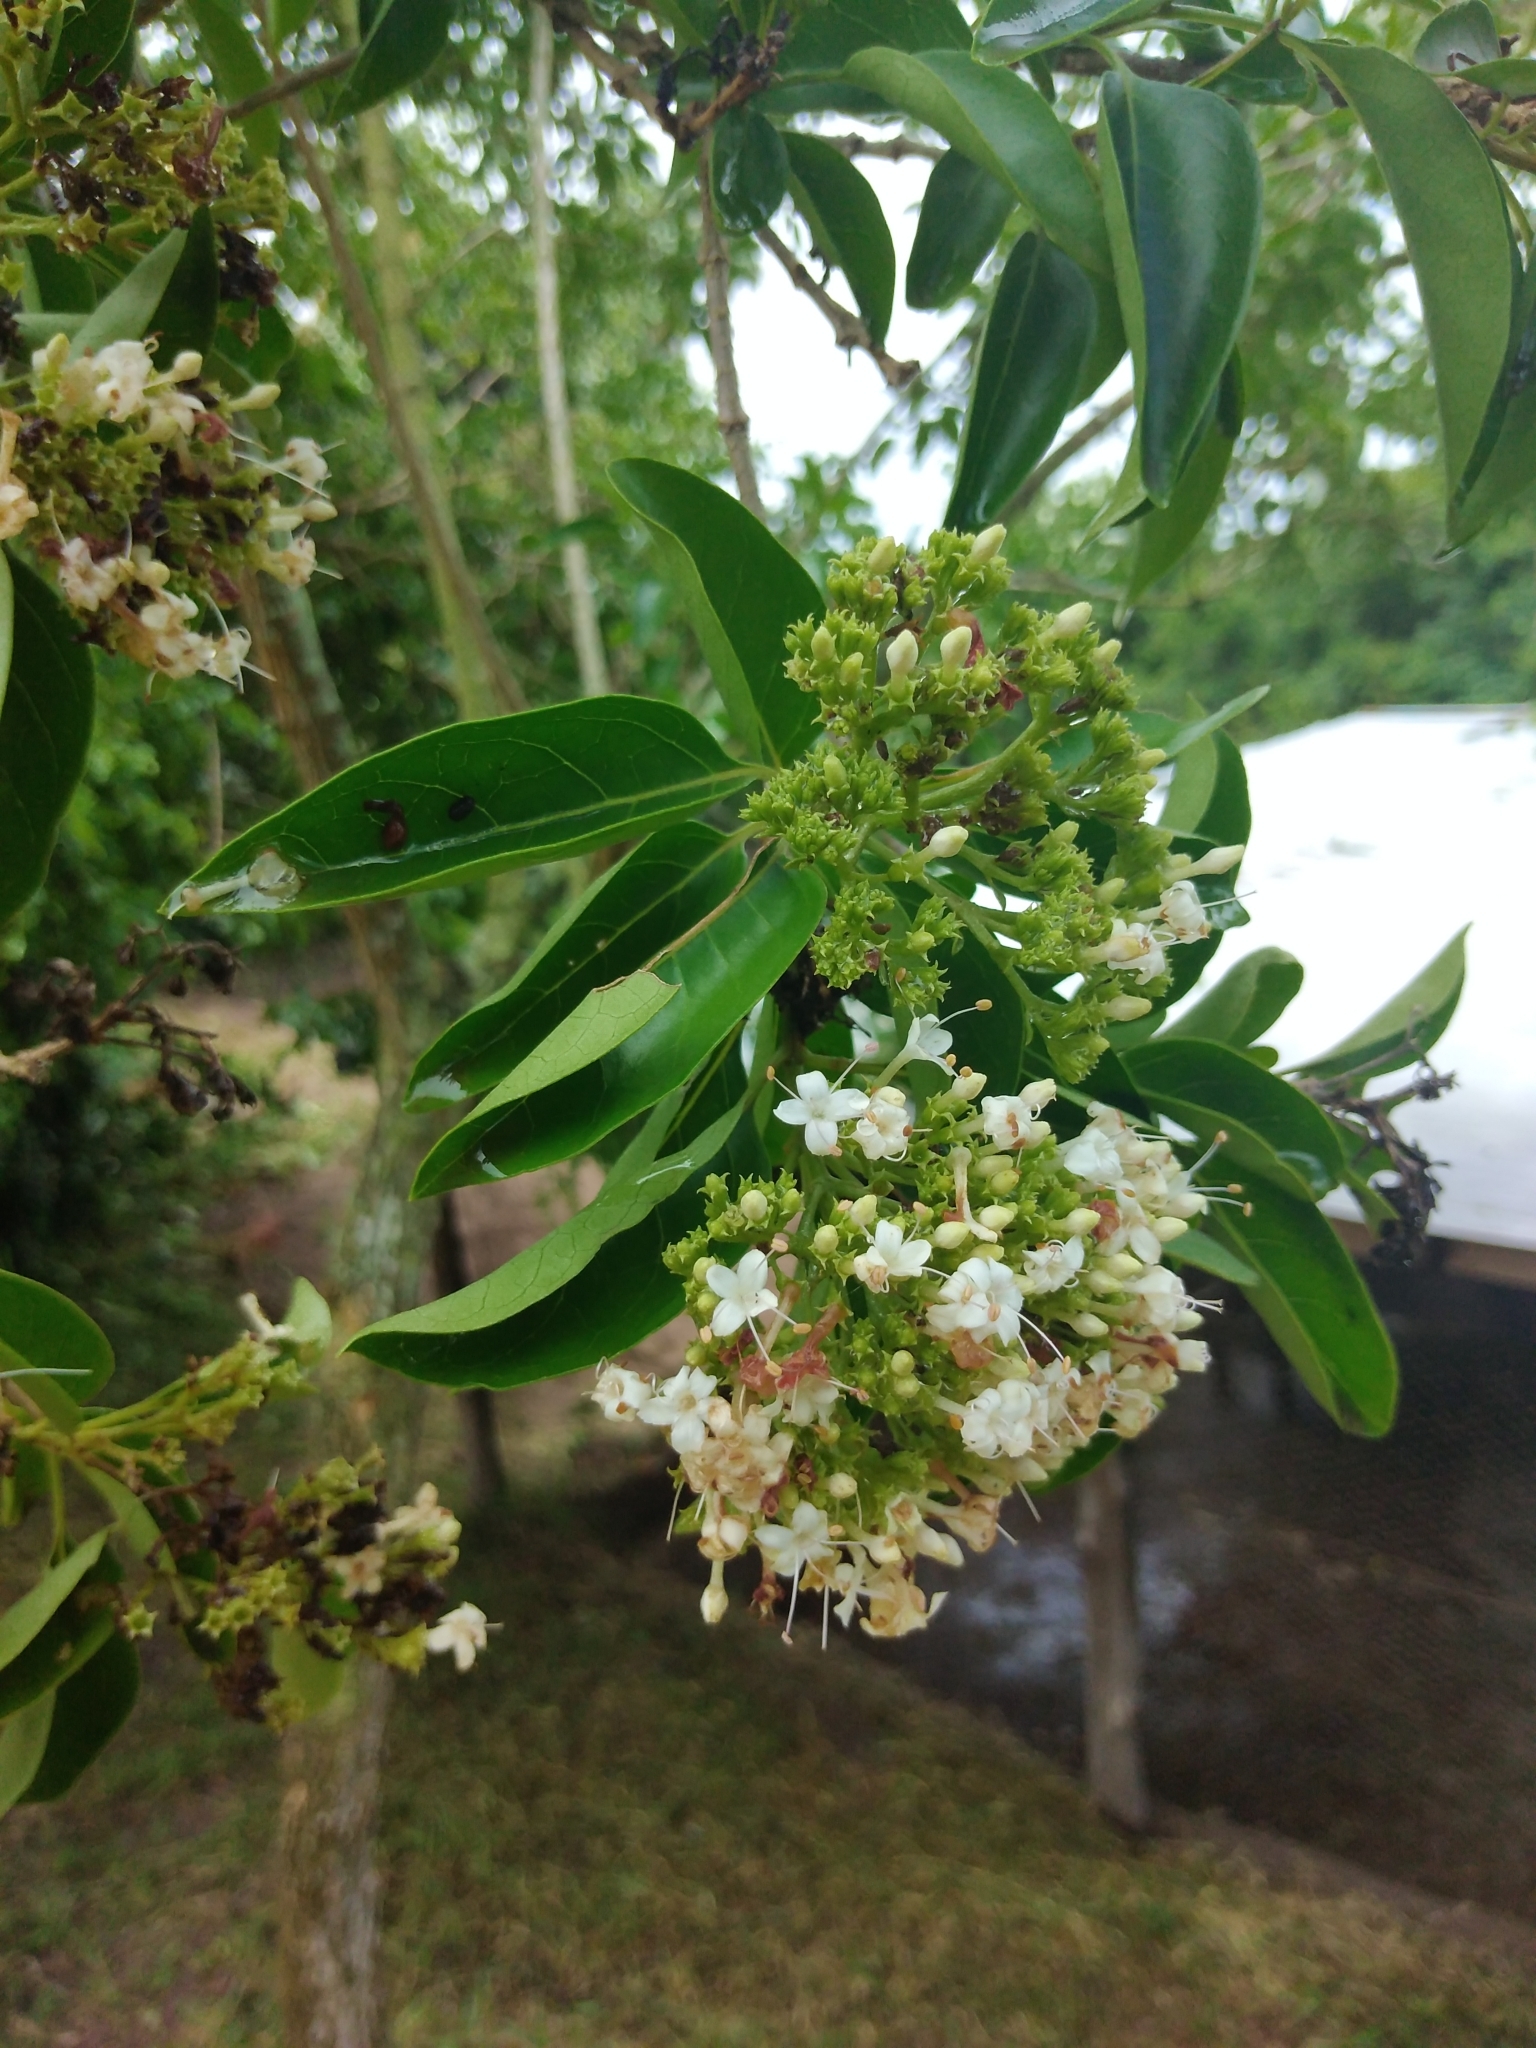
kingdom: Plantae
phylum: Tracheophyta
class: Magnoliopsida
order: Lamiales
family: Lamiaceae
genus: Volkameria
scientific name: Volkameria glabra
